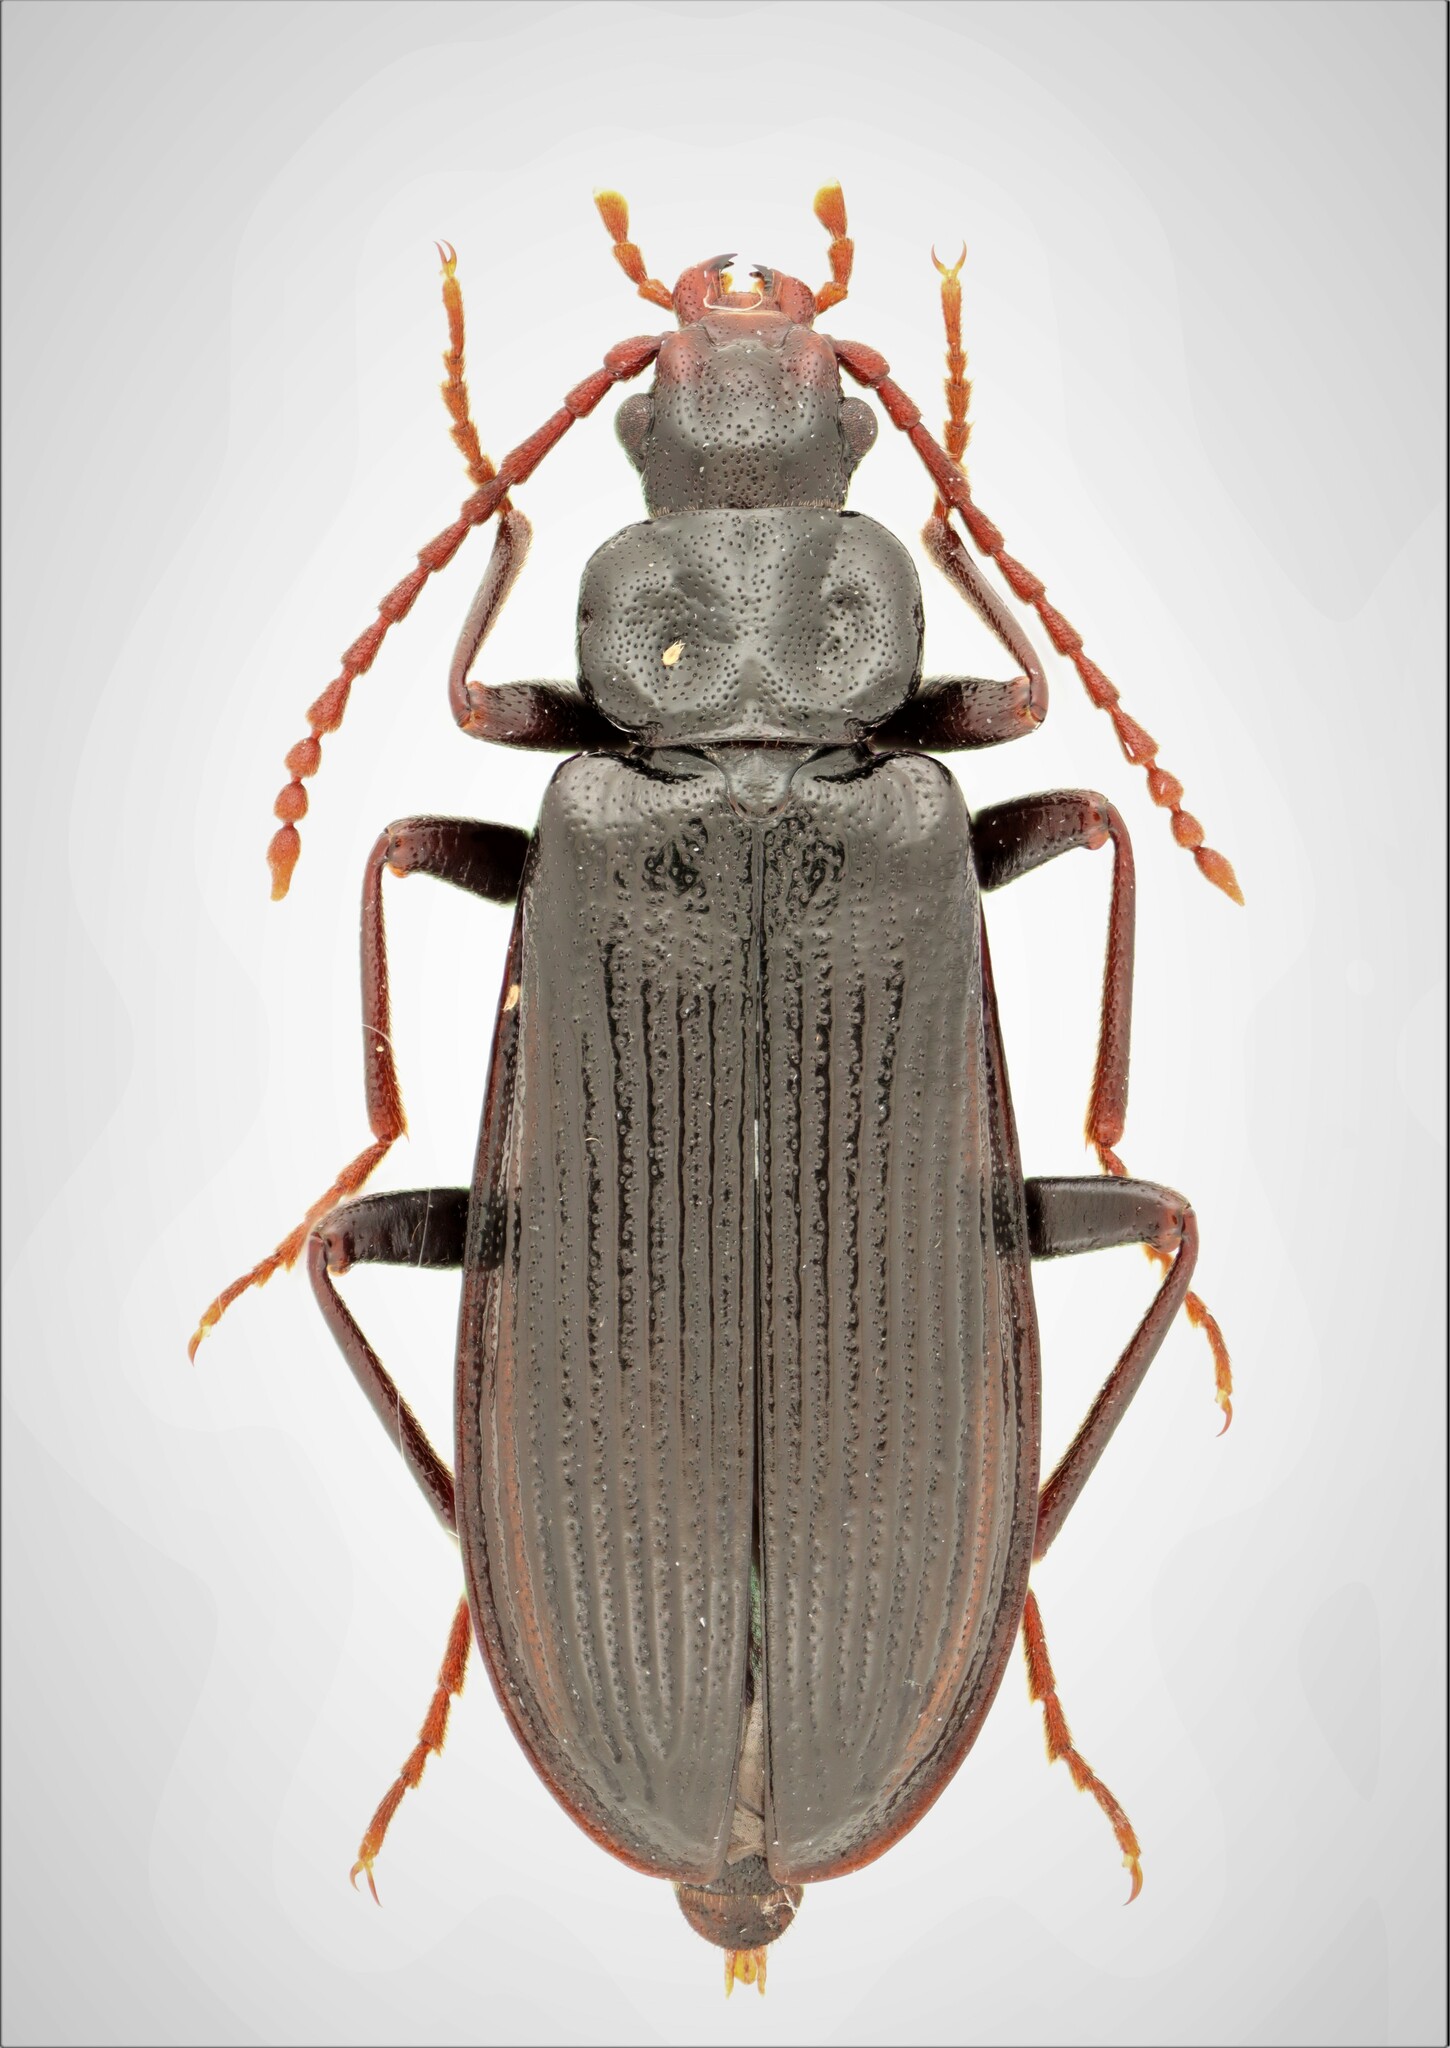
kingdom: Animalia
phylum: Arthropoda
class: Insecta
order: Coleoptera
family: Pythidae
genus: Pytho
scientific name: Pytho seidlitzi
